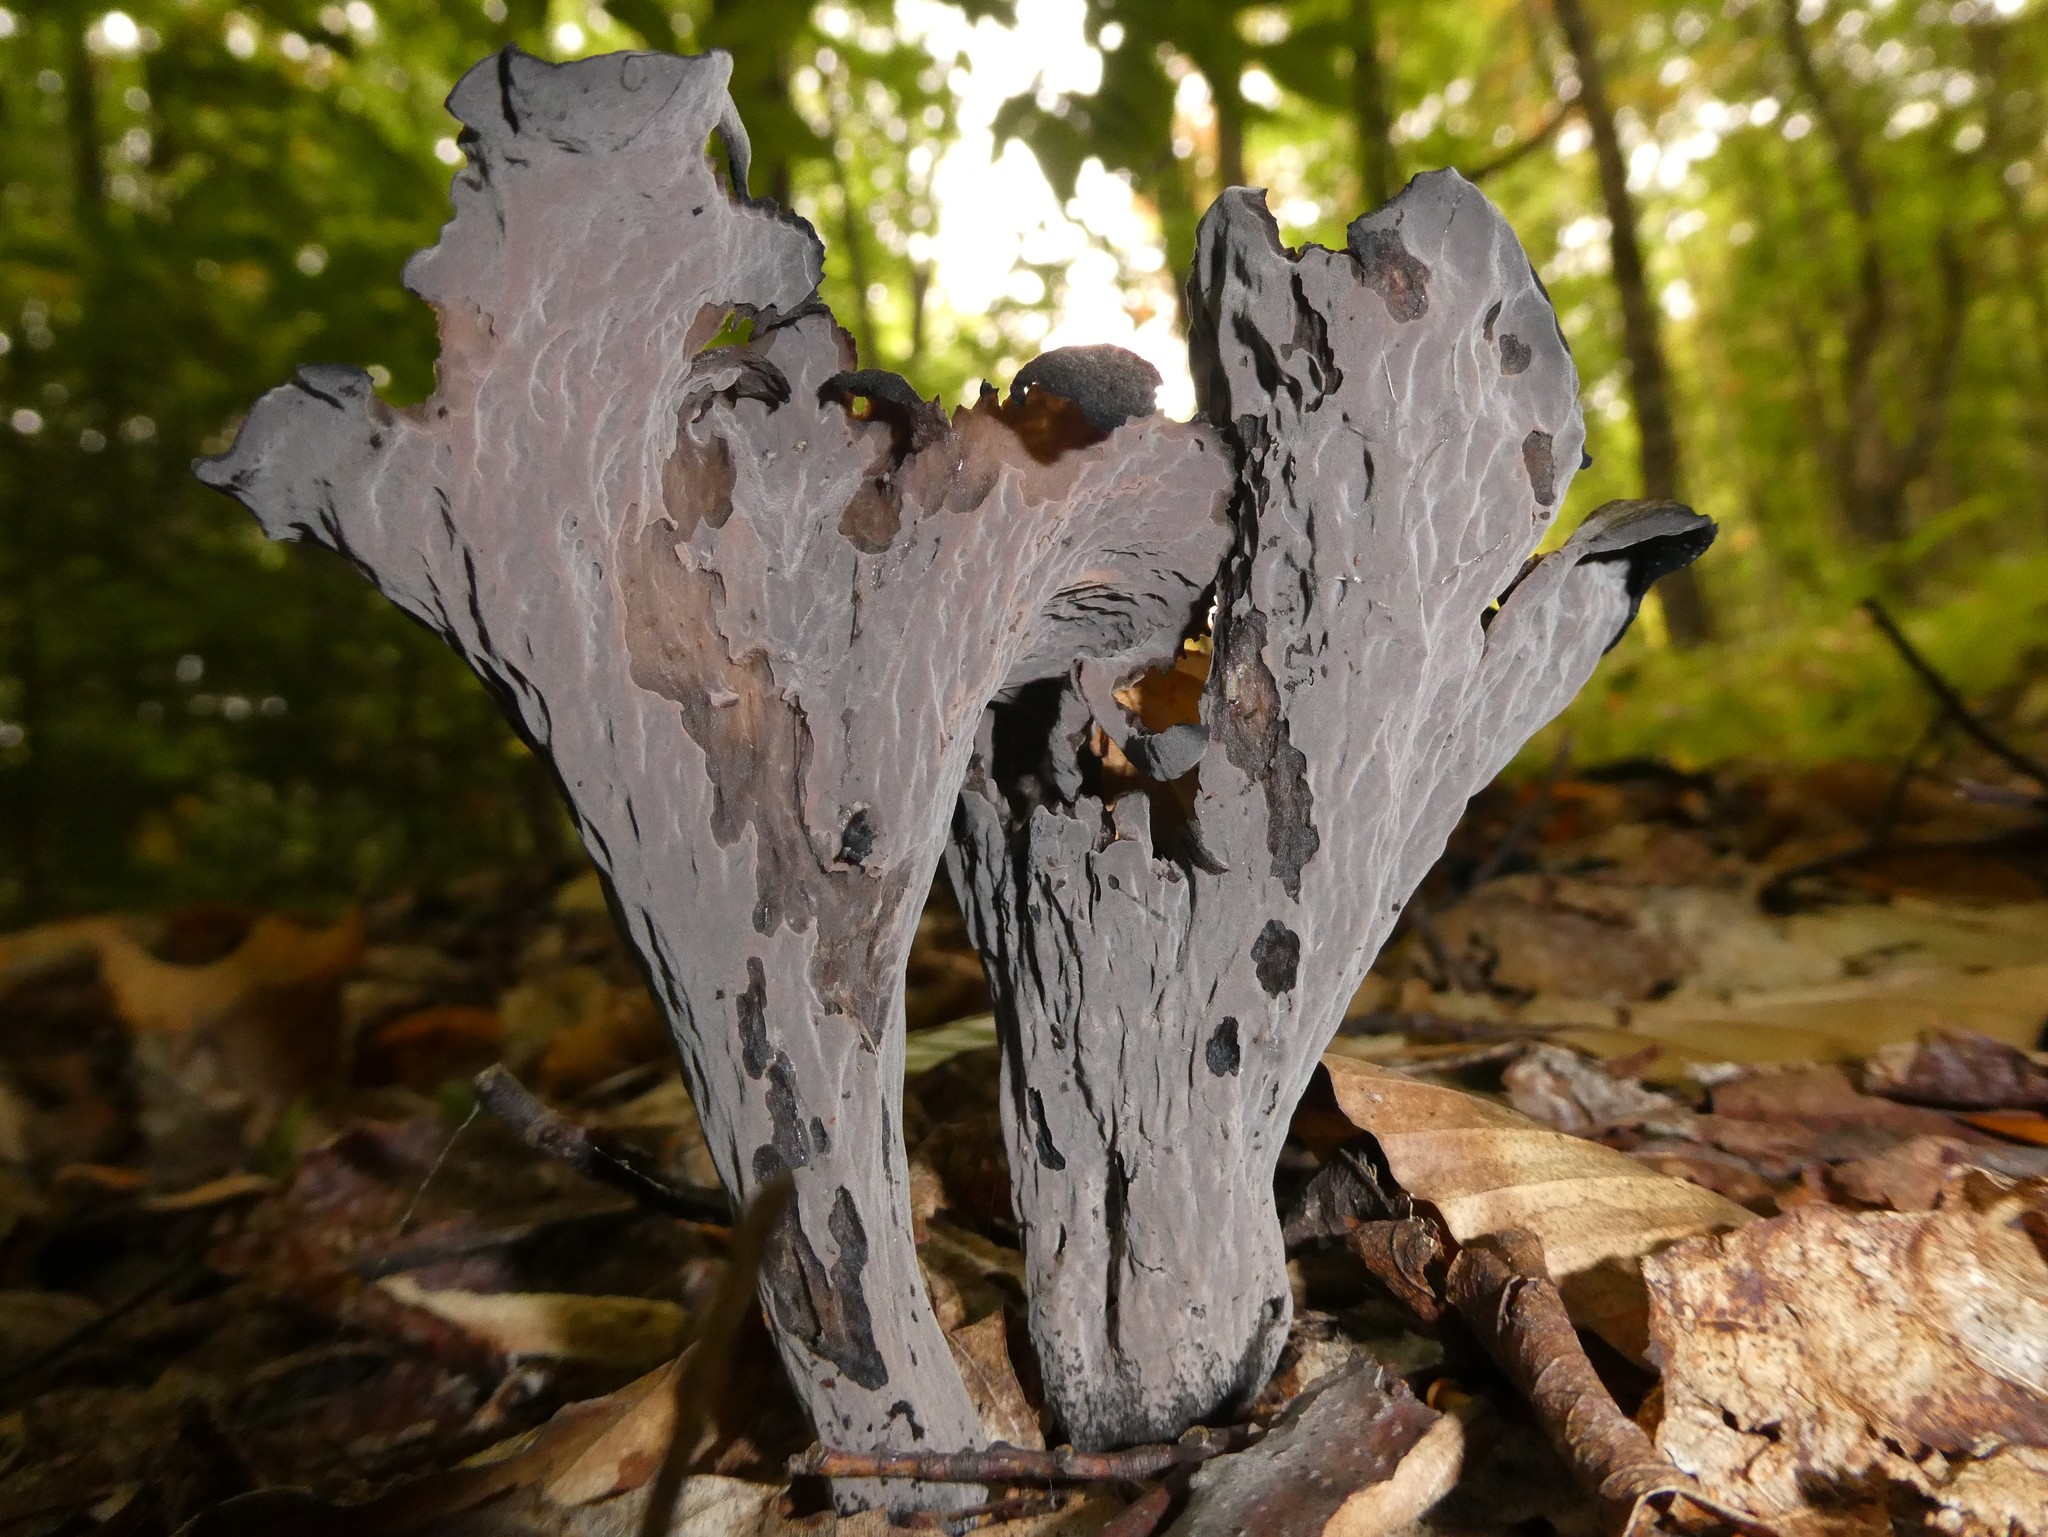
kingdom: Fungi
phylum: Basidiomycota
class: Agaricomycetes
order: Cantharellales
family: Hydnaceae
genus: Craterellus
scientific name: Craterellus cornucopioides
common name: Horn of plenty
